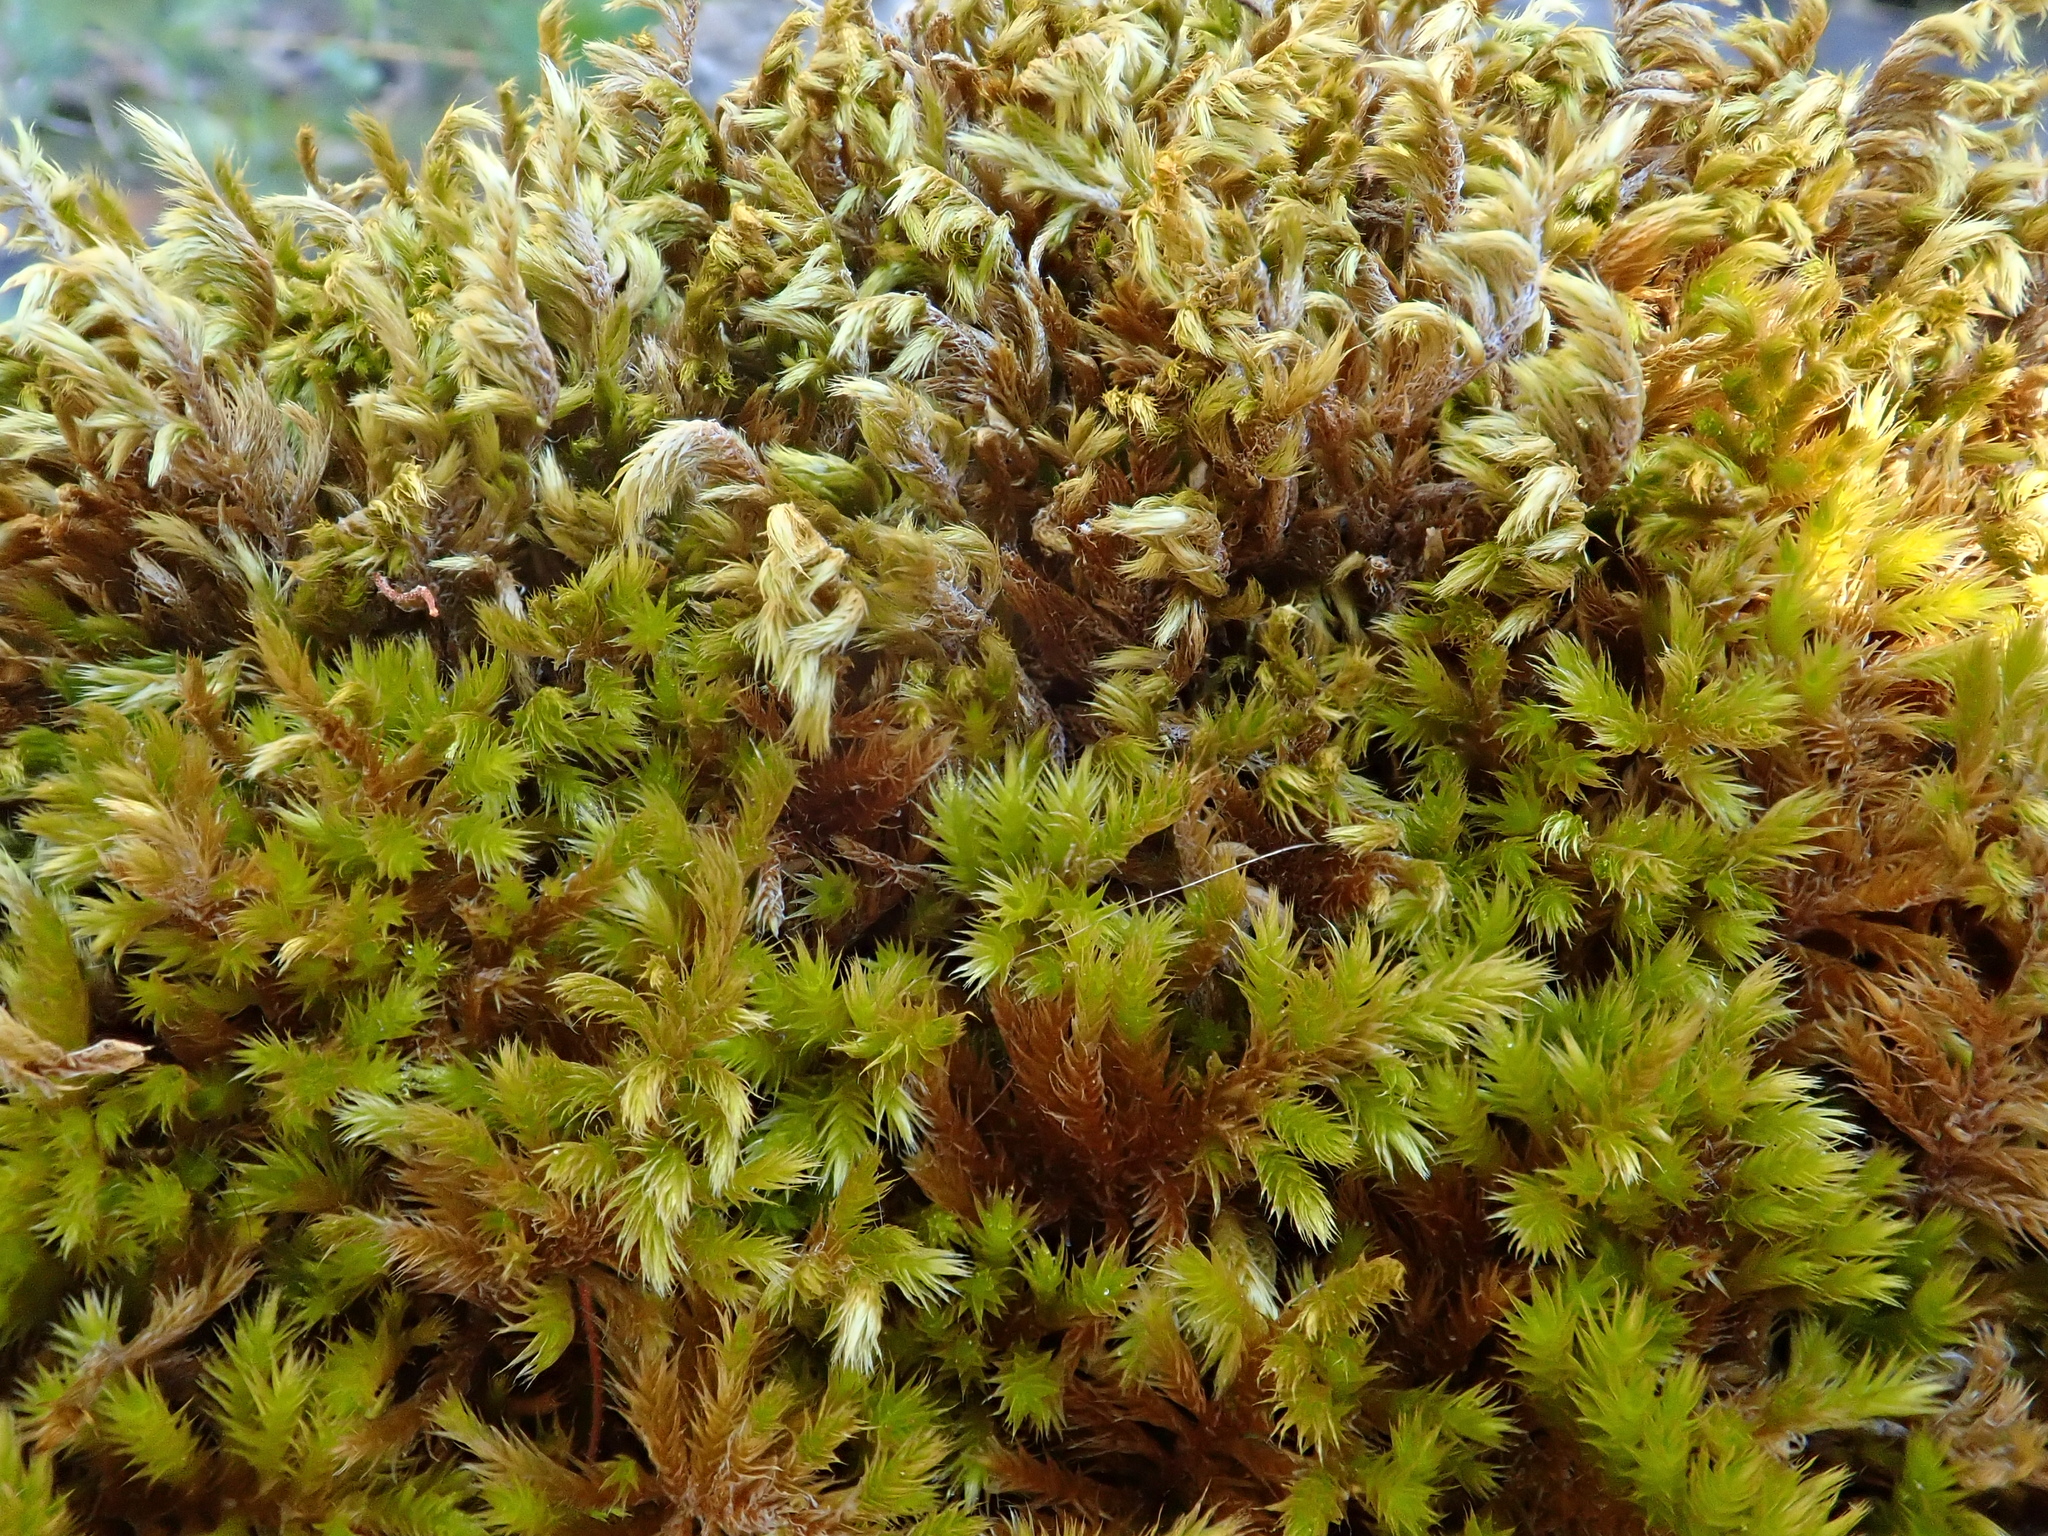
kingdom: Plantae
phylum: Bryophyta
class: Bryopsida
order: Hypnales
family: Brachytheciaceae
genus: Homalothecium
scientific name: Homalothecium sericeum
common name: Silky wall feather-moss
